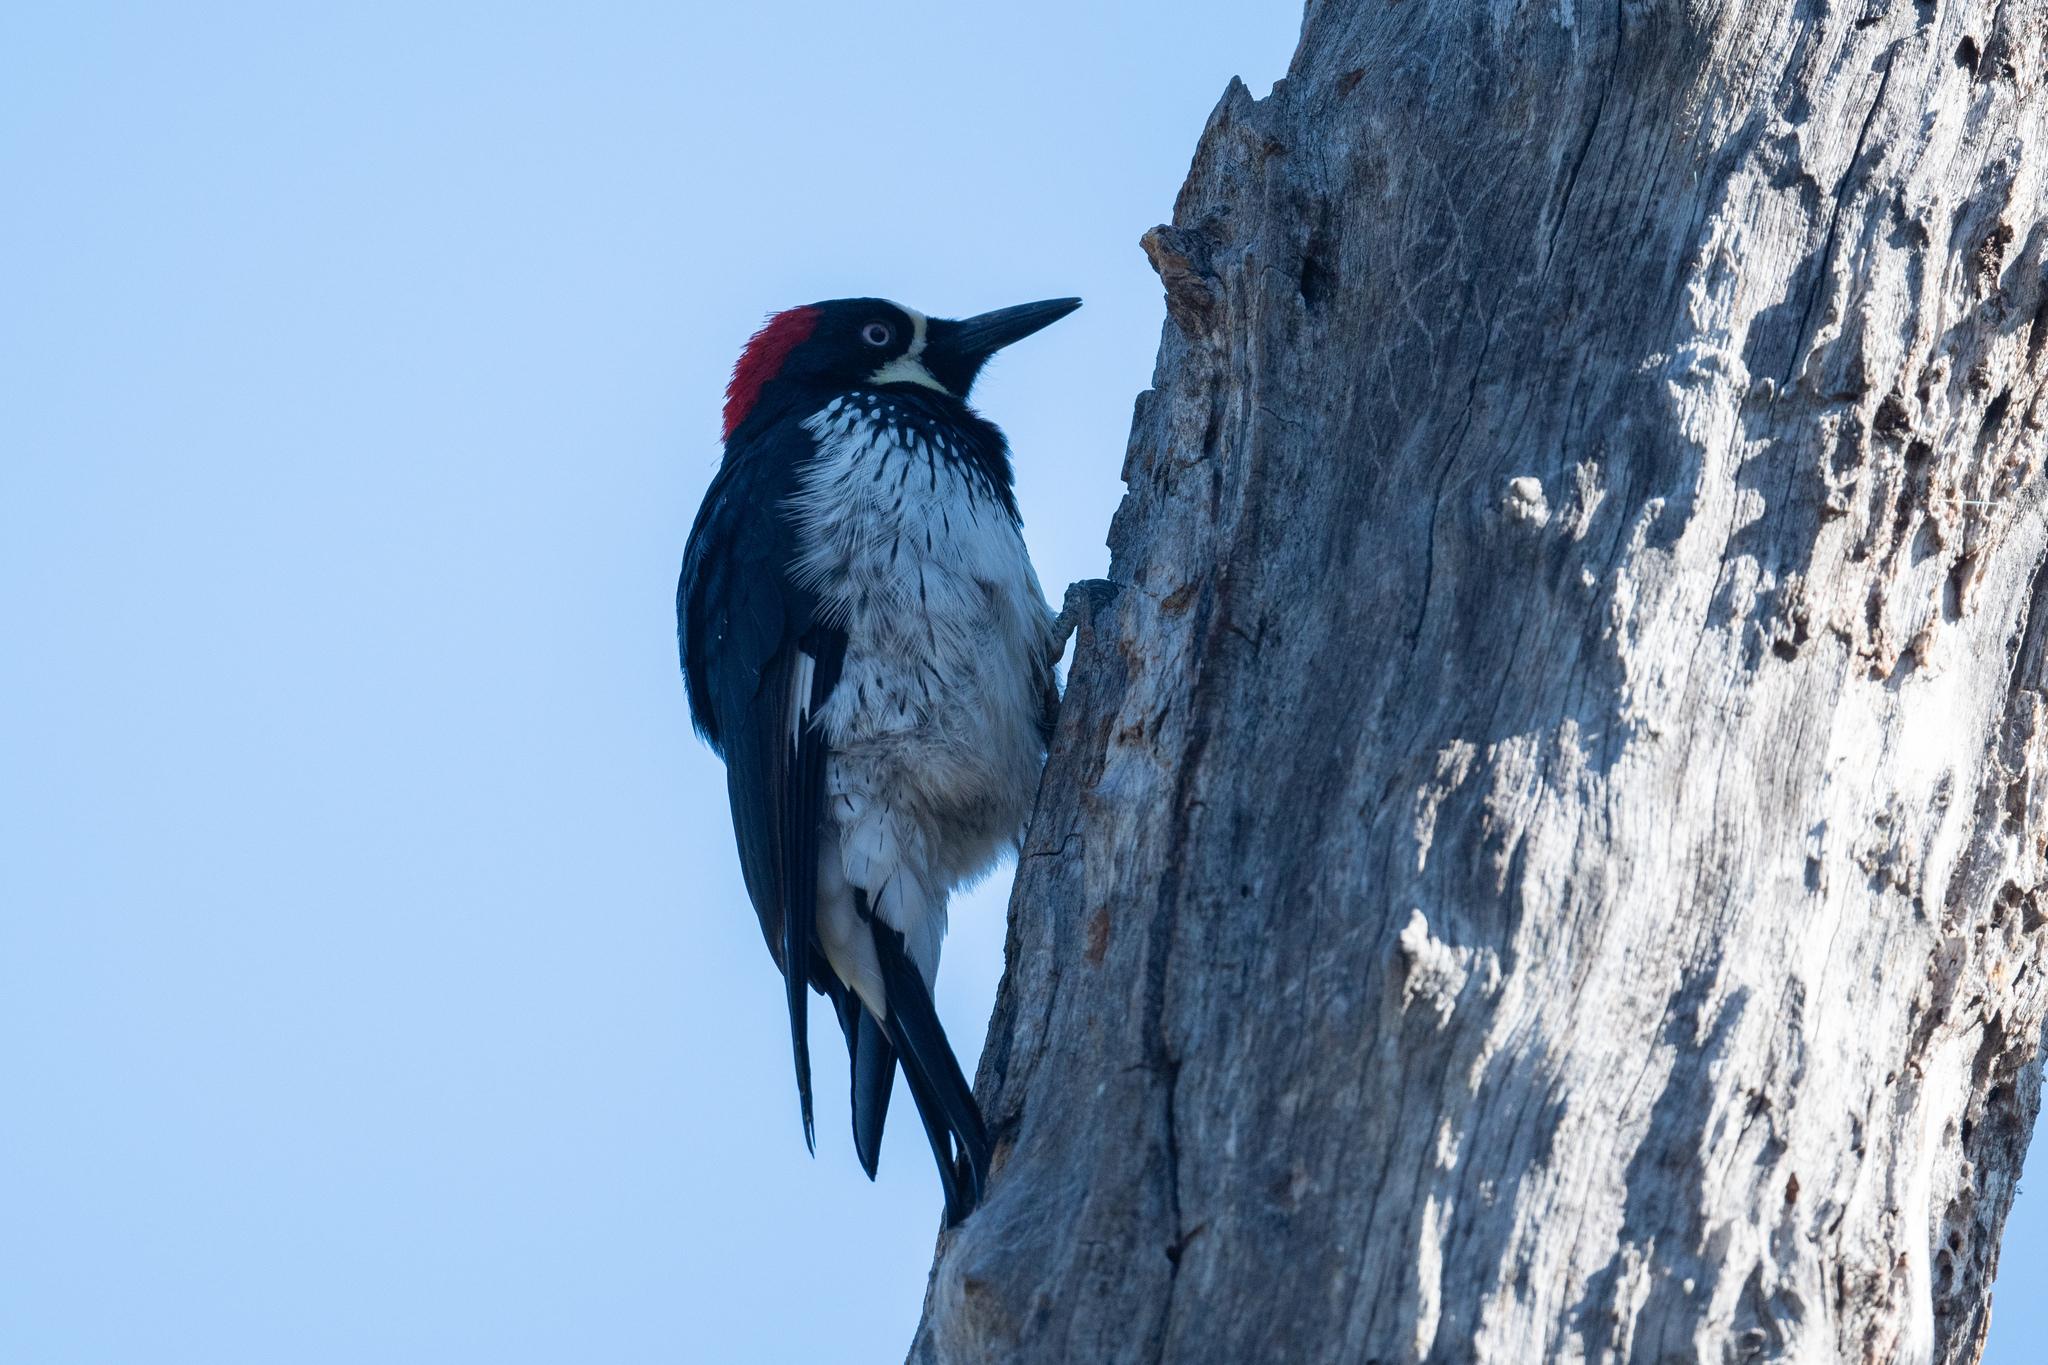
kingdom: Animalia
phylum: Chordata
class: Aves
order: Piciformes
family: Picidae
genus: Melanerpes
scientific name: Melanerpes formicivorus
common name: Acorn woodpecker
